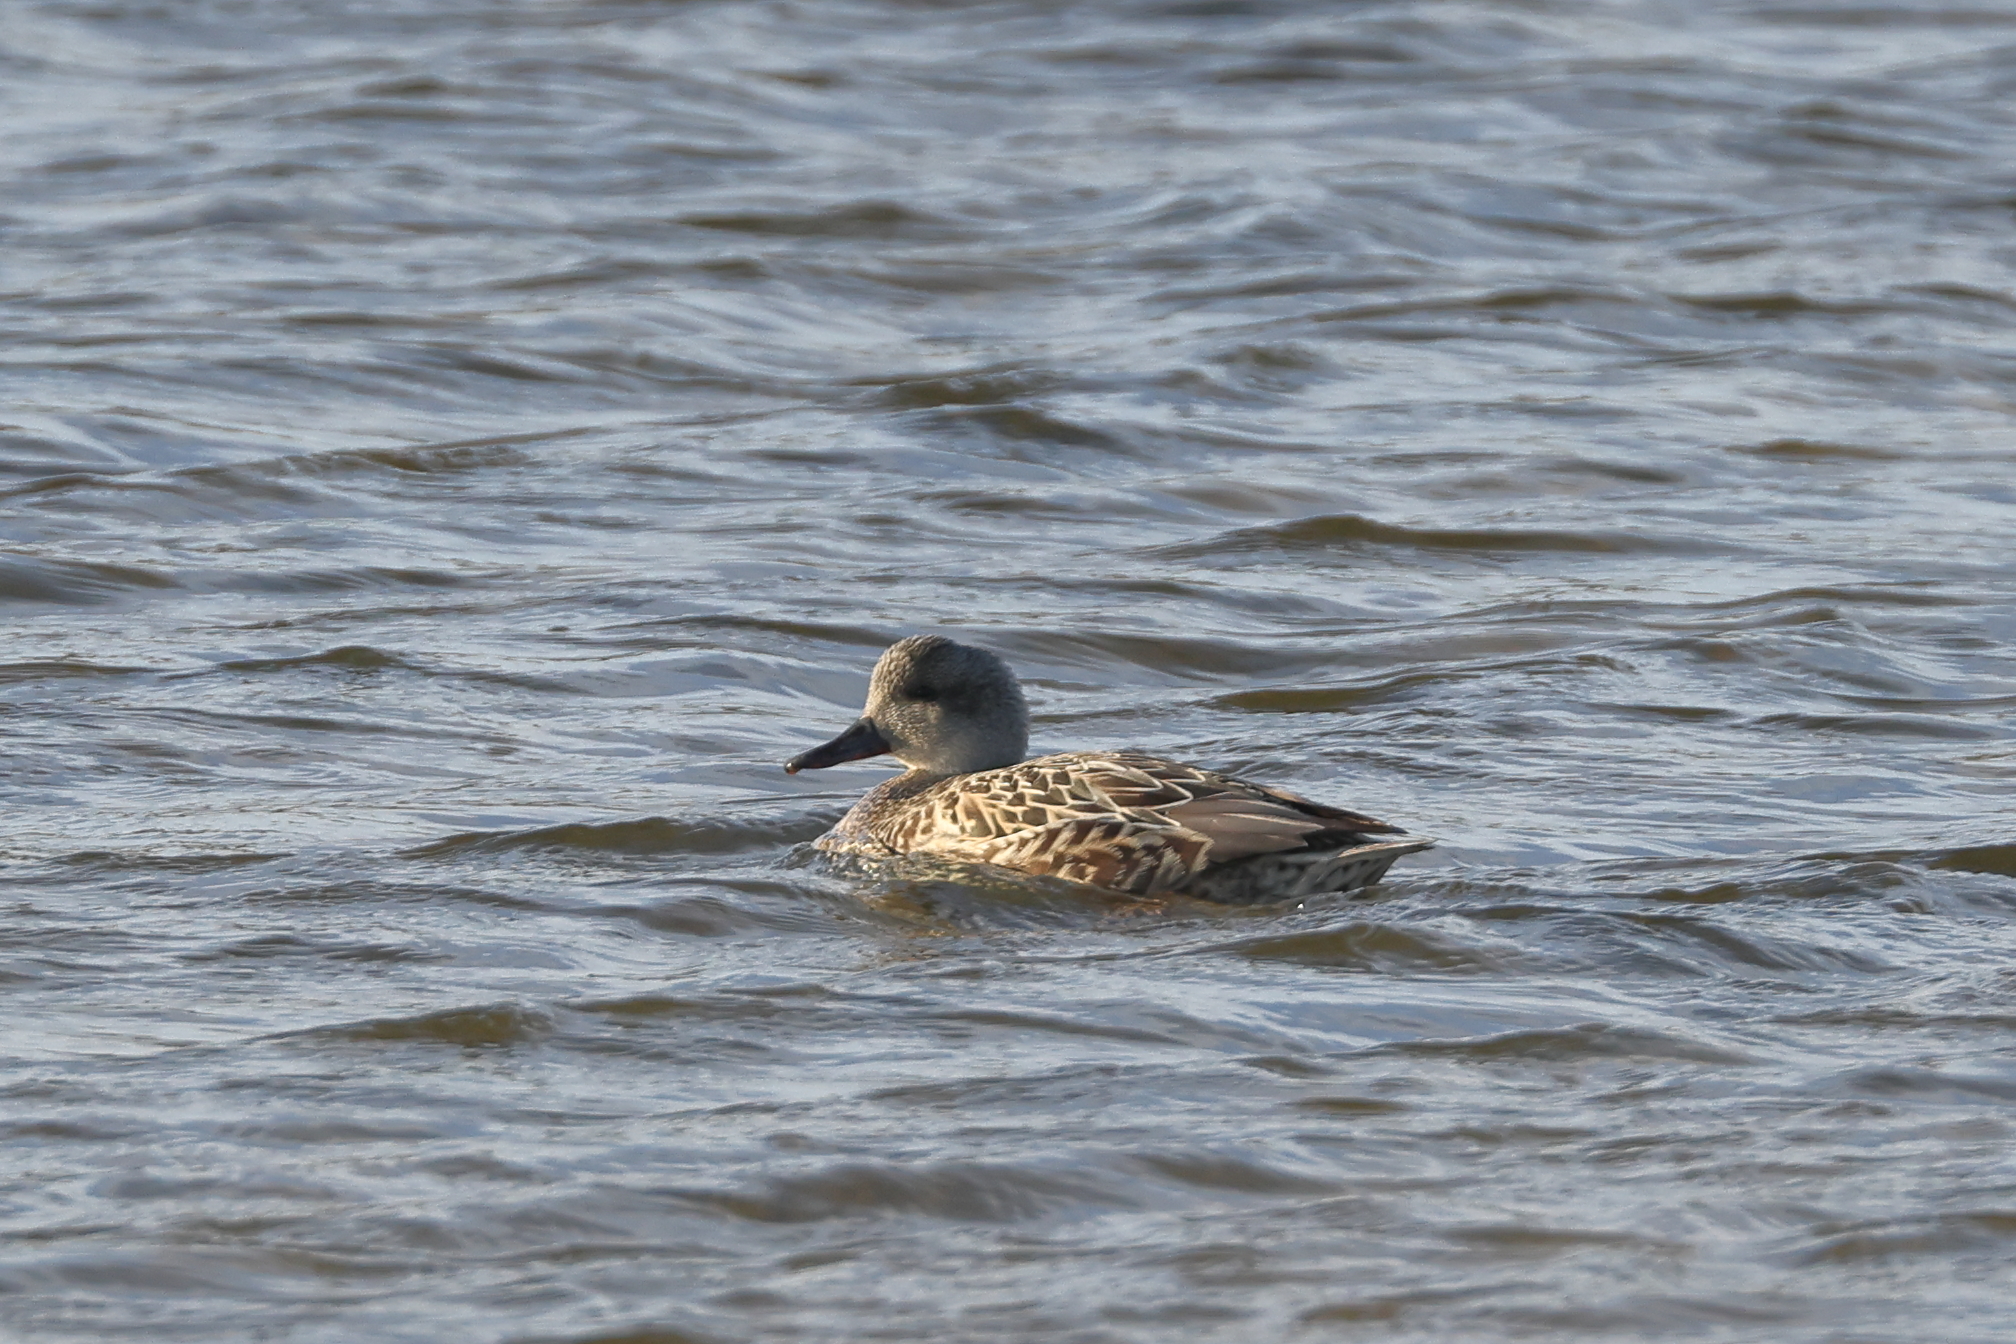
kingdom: Animalia
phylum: Chordata
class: Aves
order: Anseriformes
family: Anatidae
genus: Mareca
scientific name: Mareca strepera
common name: Gadwall
